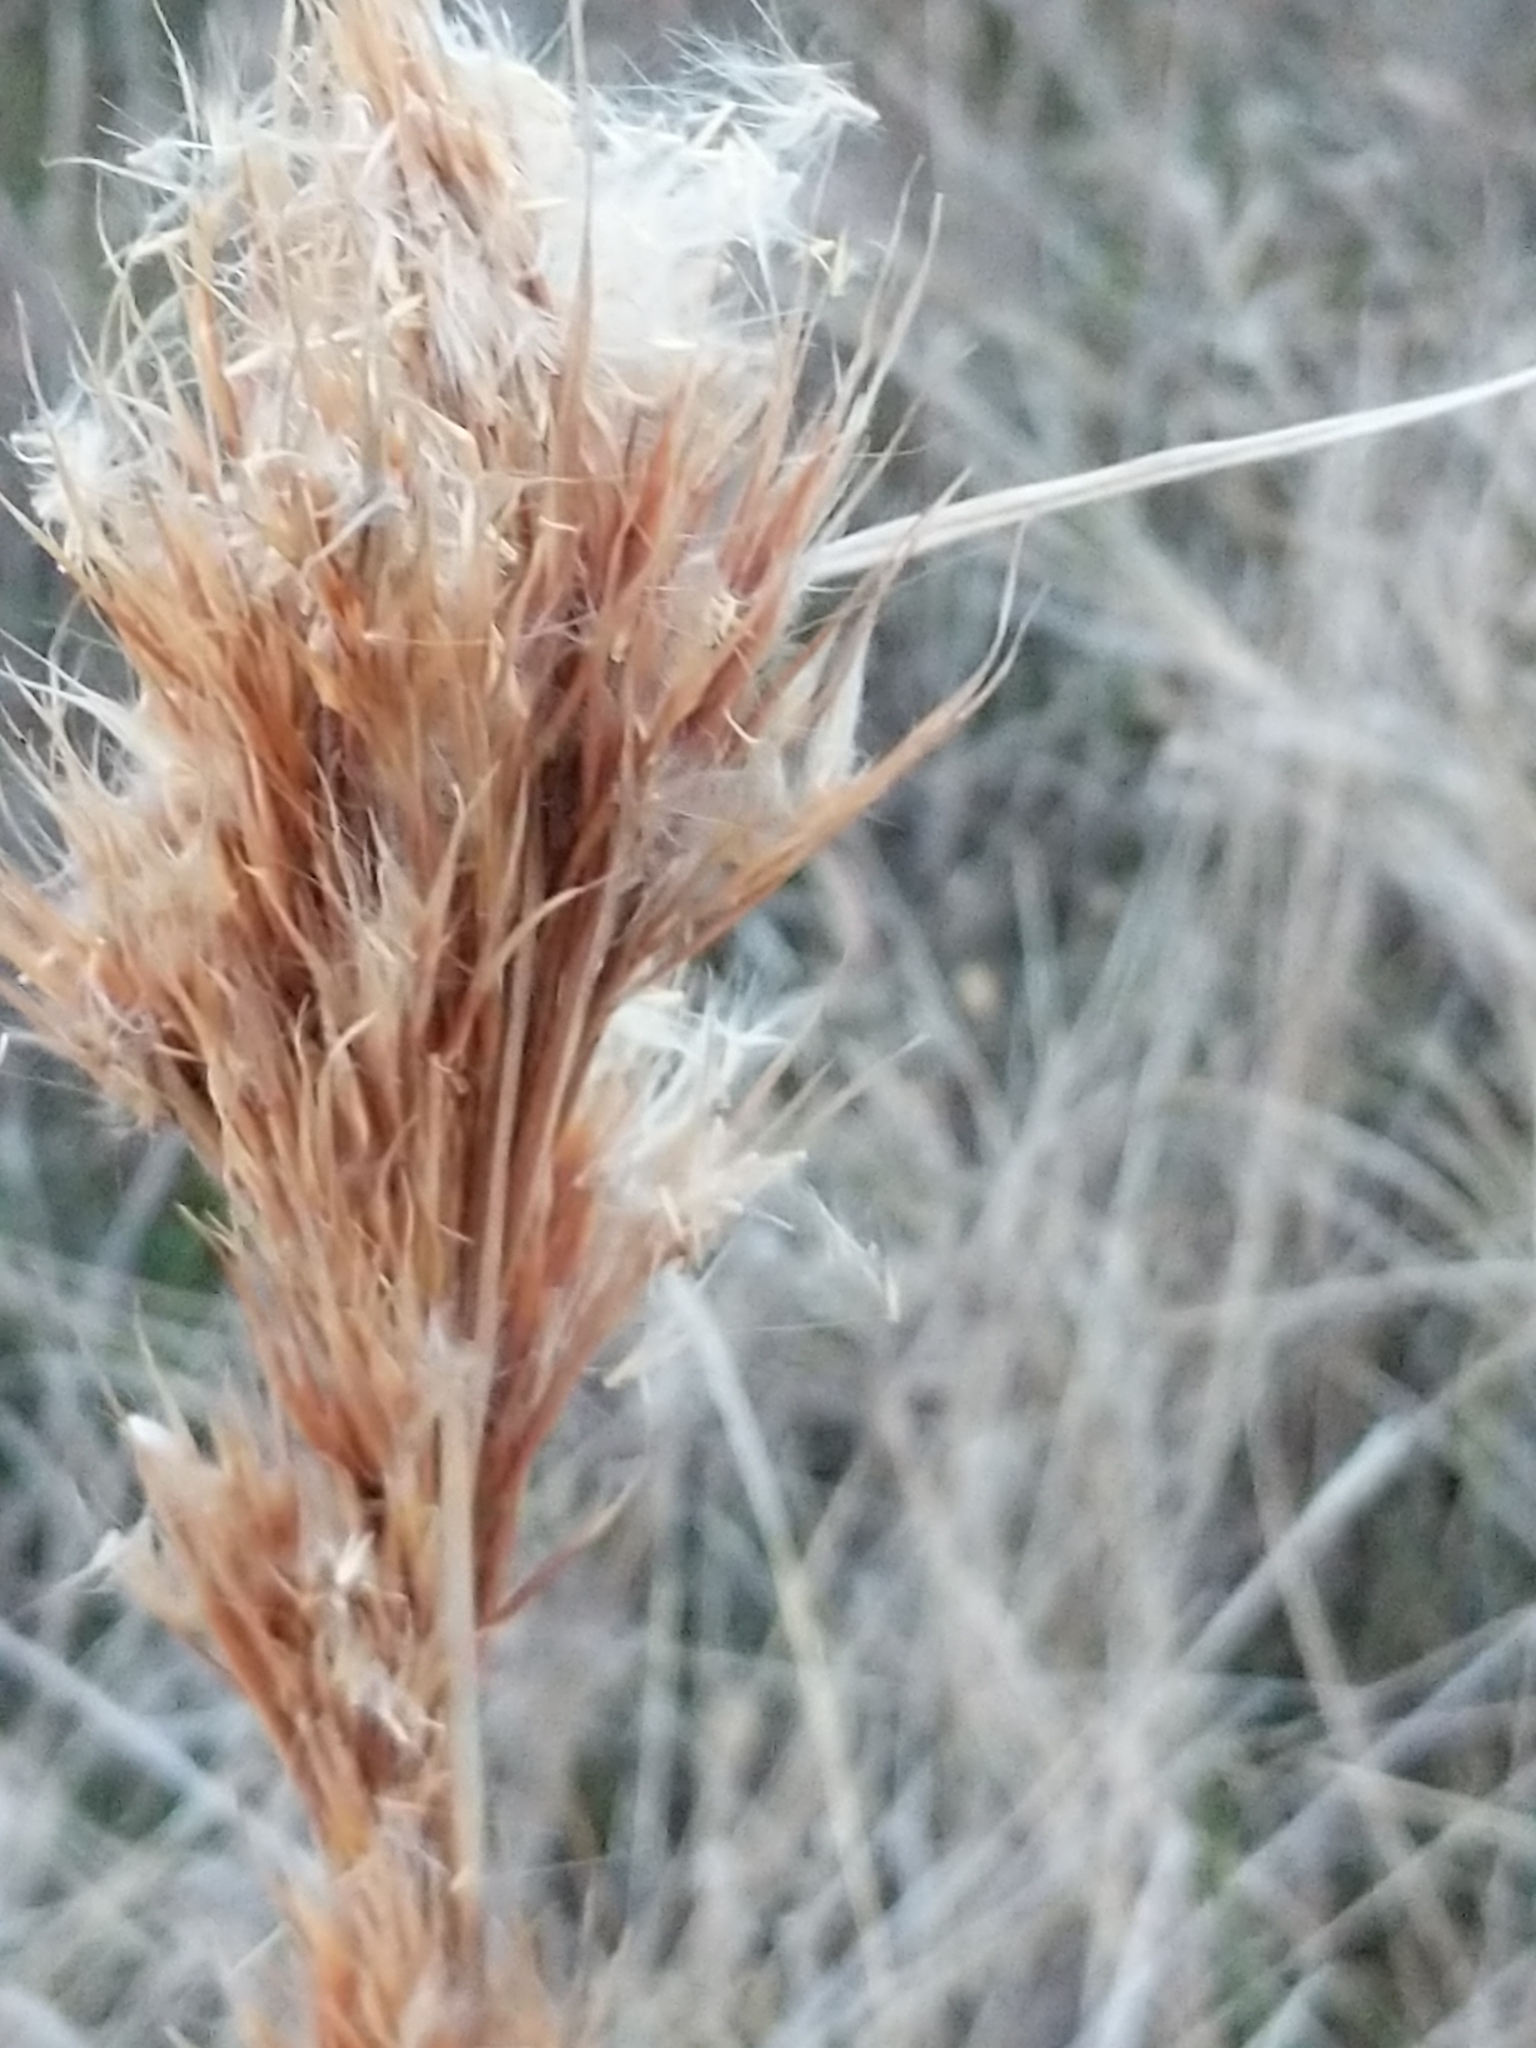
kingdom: Plantae
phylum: Tracheophyta
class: Liliopsida
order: Poales
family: Poaceae
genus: Andropogon
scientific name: Andropogon tenuispatheus
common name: Bushy bluestem
